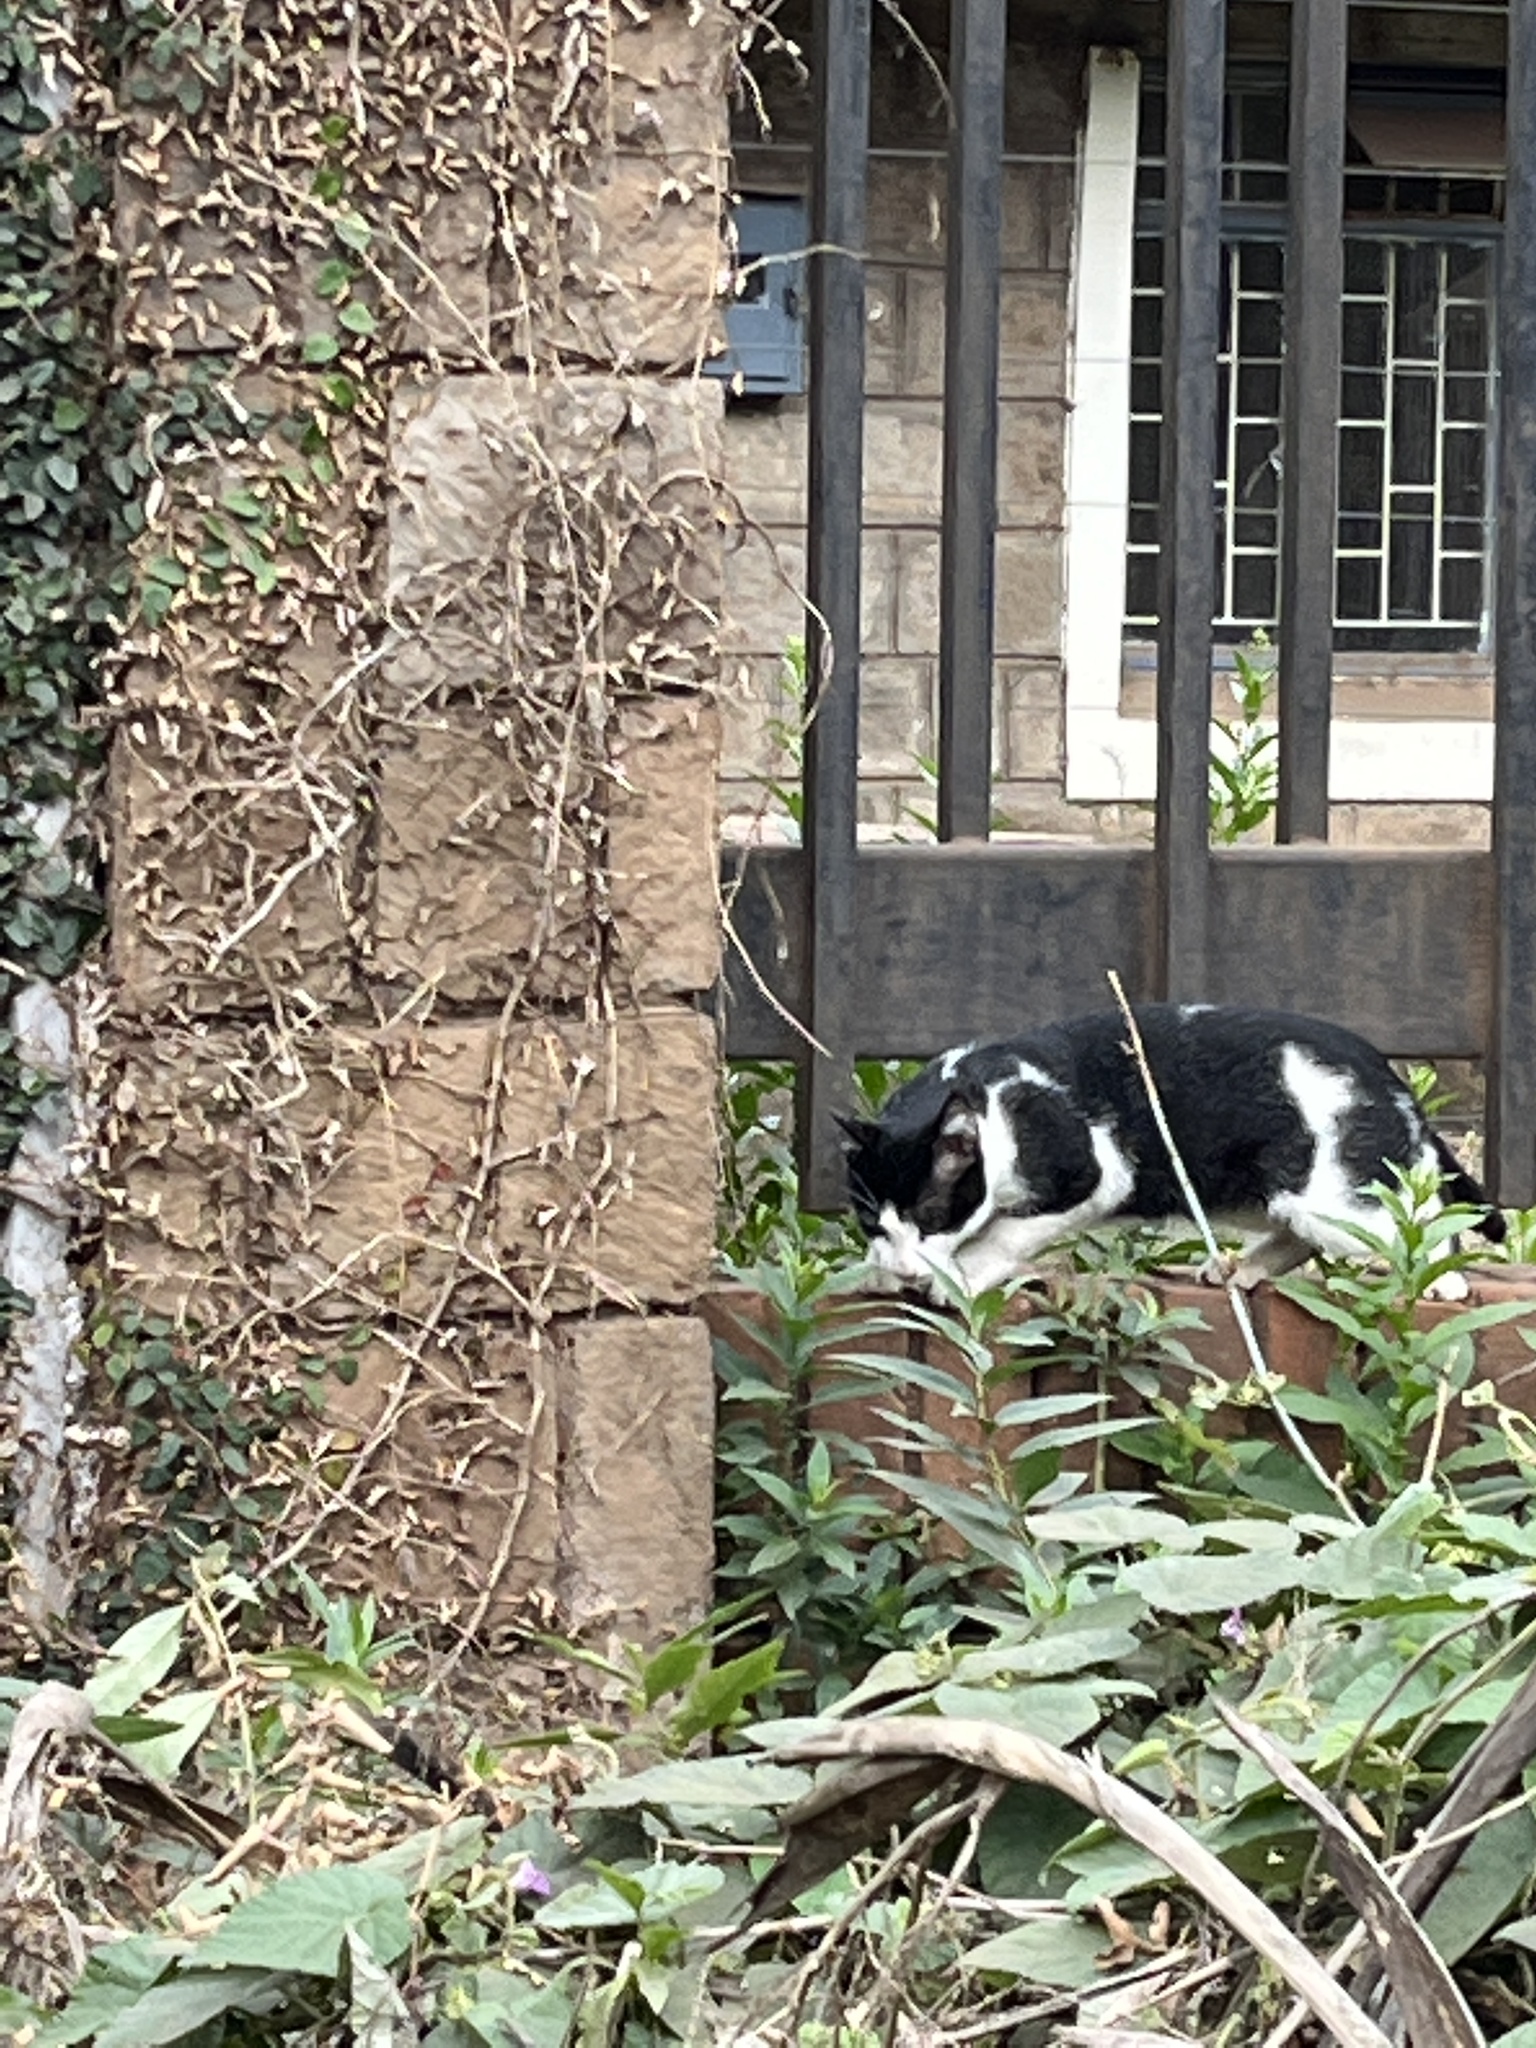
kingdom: Animalia
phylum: Chordata
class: Mammalia
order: Carnivora
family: Felidae
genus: Felis
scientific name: Felis catus
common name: Domestic cat
